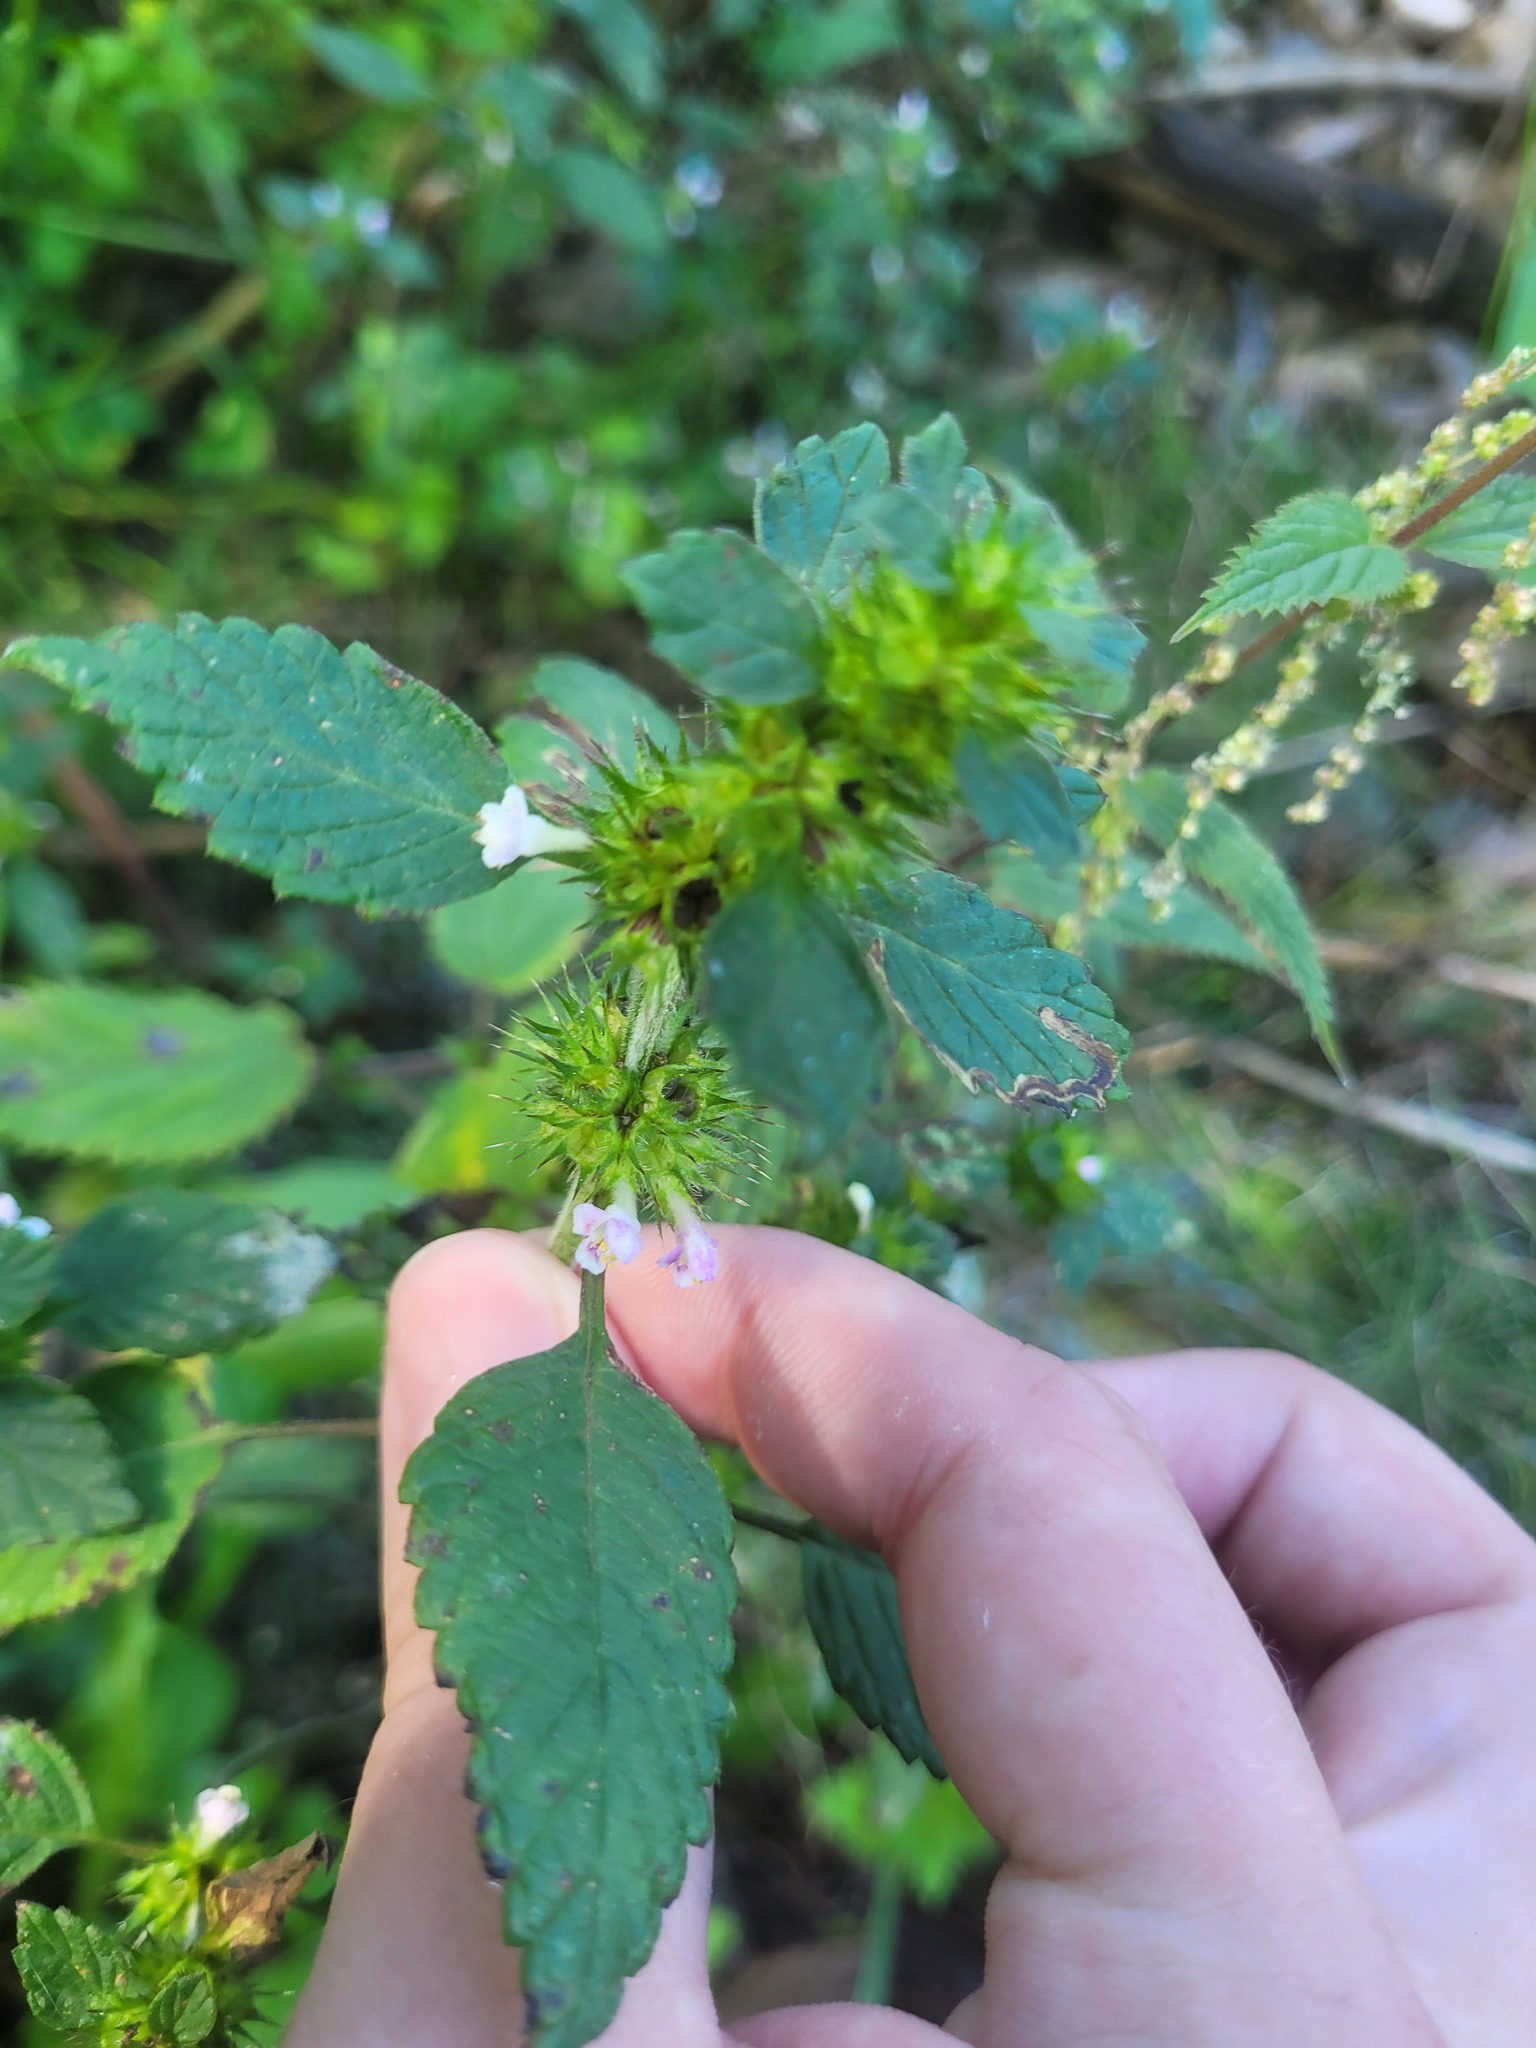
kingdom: Plantae
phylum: Tracheophyta
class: Magnoliopsida
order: Lamiales
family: Lamiaceae
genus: Galeopsis
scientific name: Galeopsis tetrahit
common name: Common hemp-nettle
